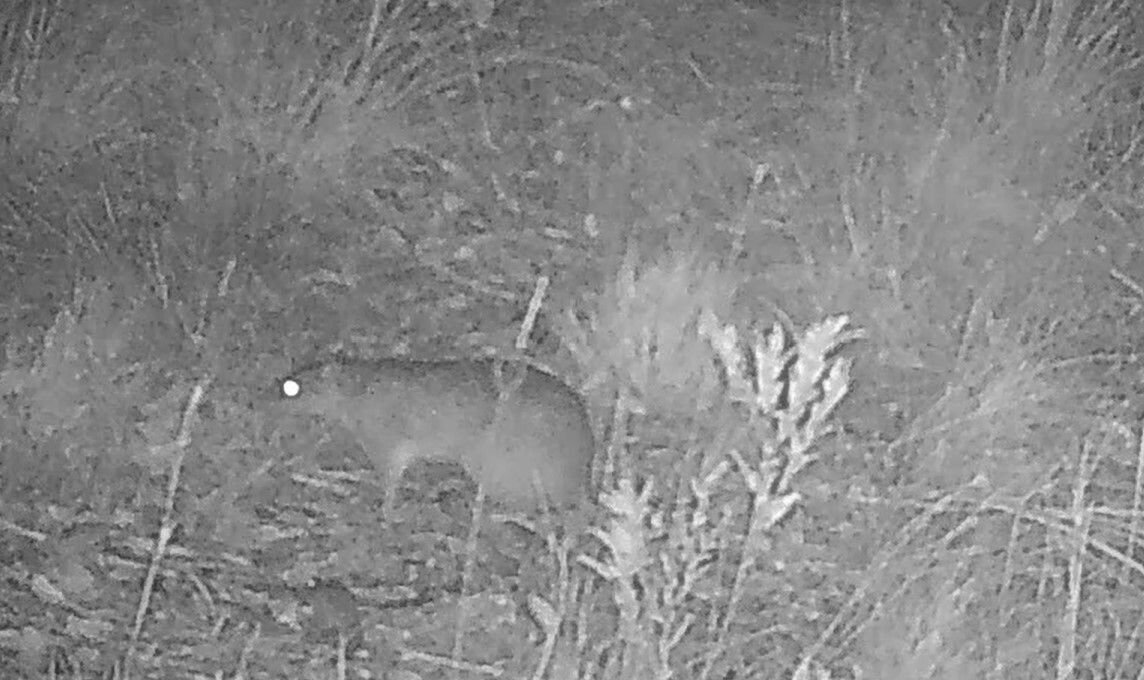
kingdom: Animalia
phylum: Chordata
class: Mammalia
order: Peramelemorphia
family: Peramelidae
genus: Isoodon
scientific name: Isoodon macrourus
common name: Northern brown bandicoot
